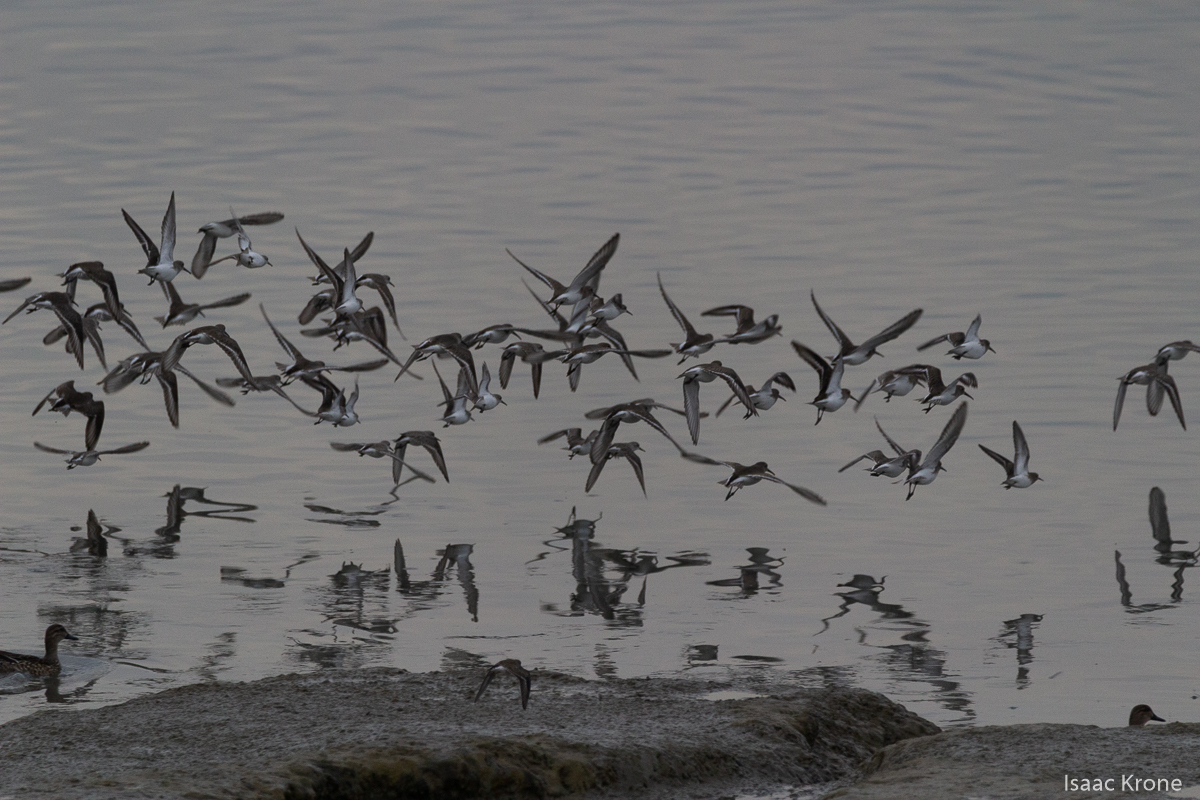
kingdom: Animalia
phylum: Chordata
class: Aves
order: Charadriiformes
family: Scolopacidae
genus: Calidris
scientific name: Calidris alpina
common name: Dunlin
